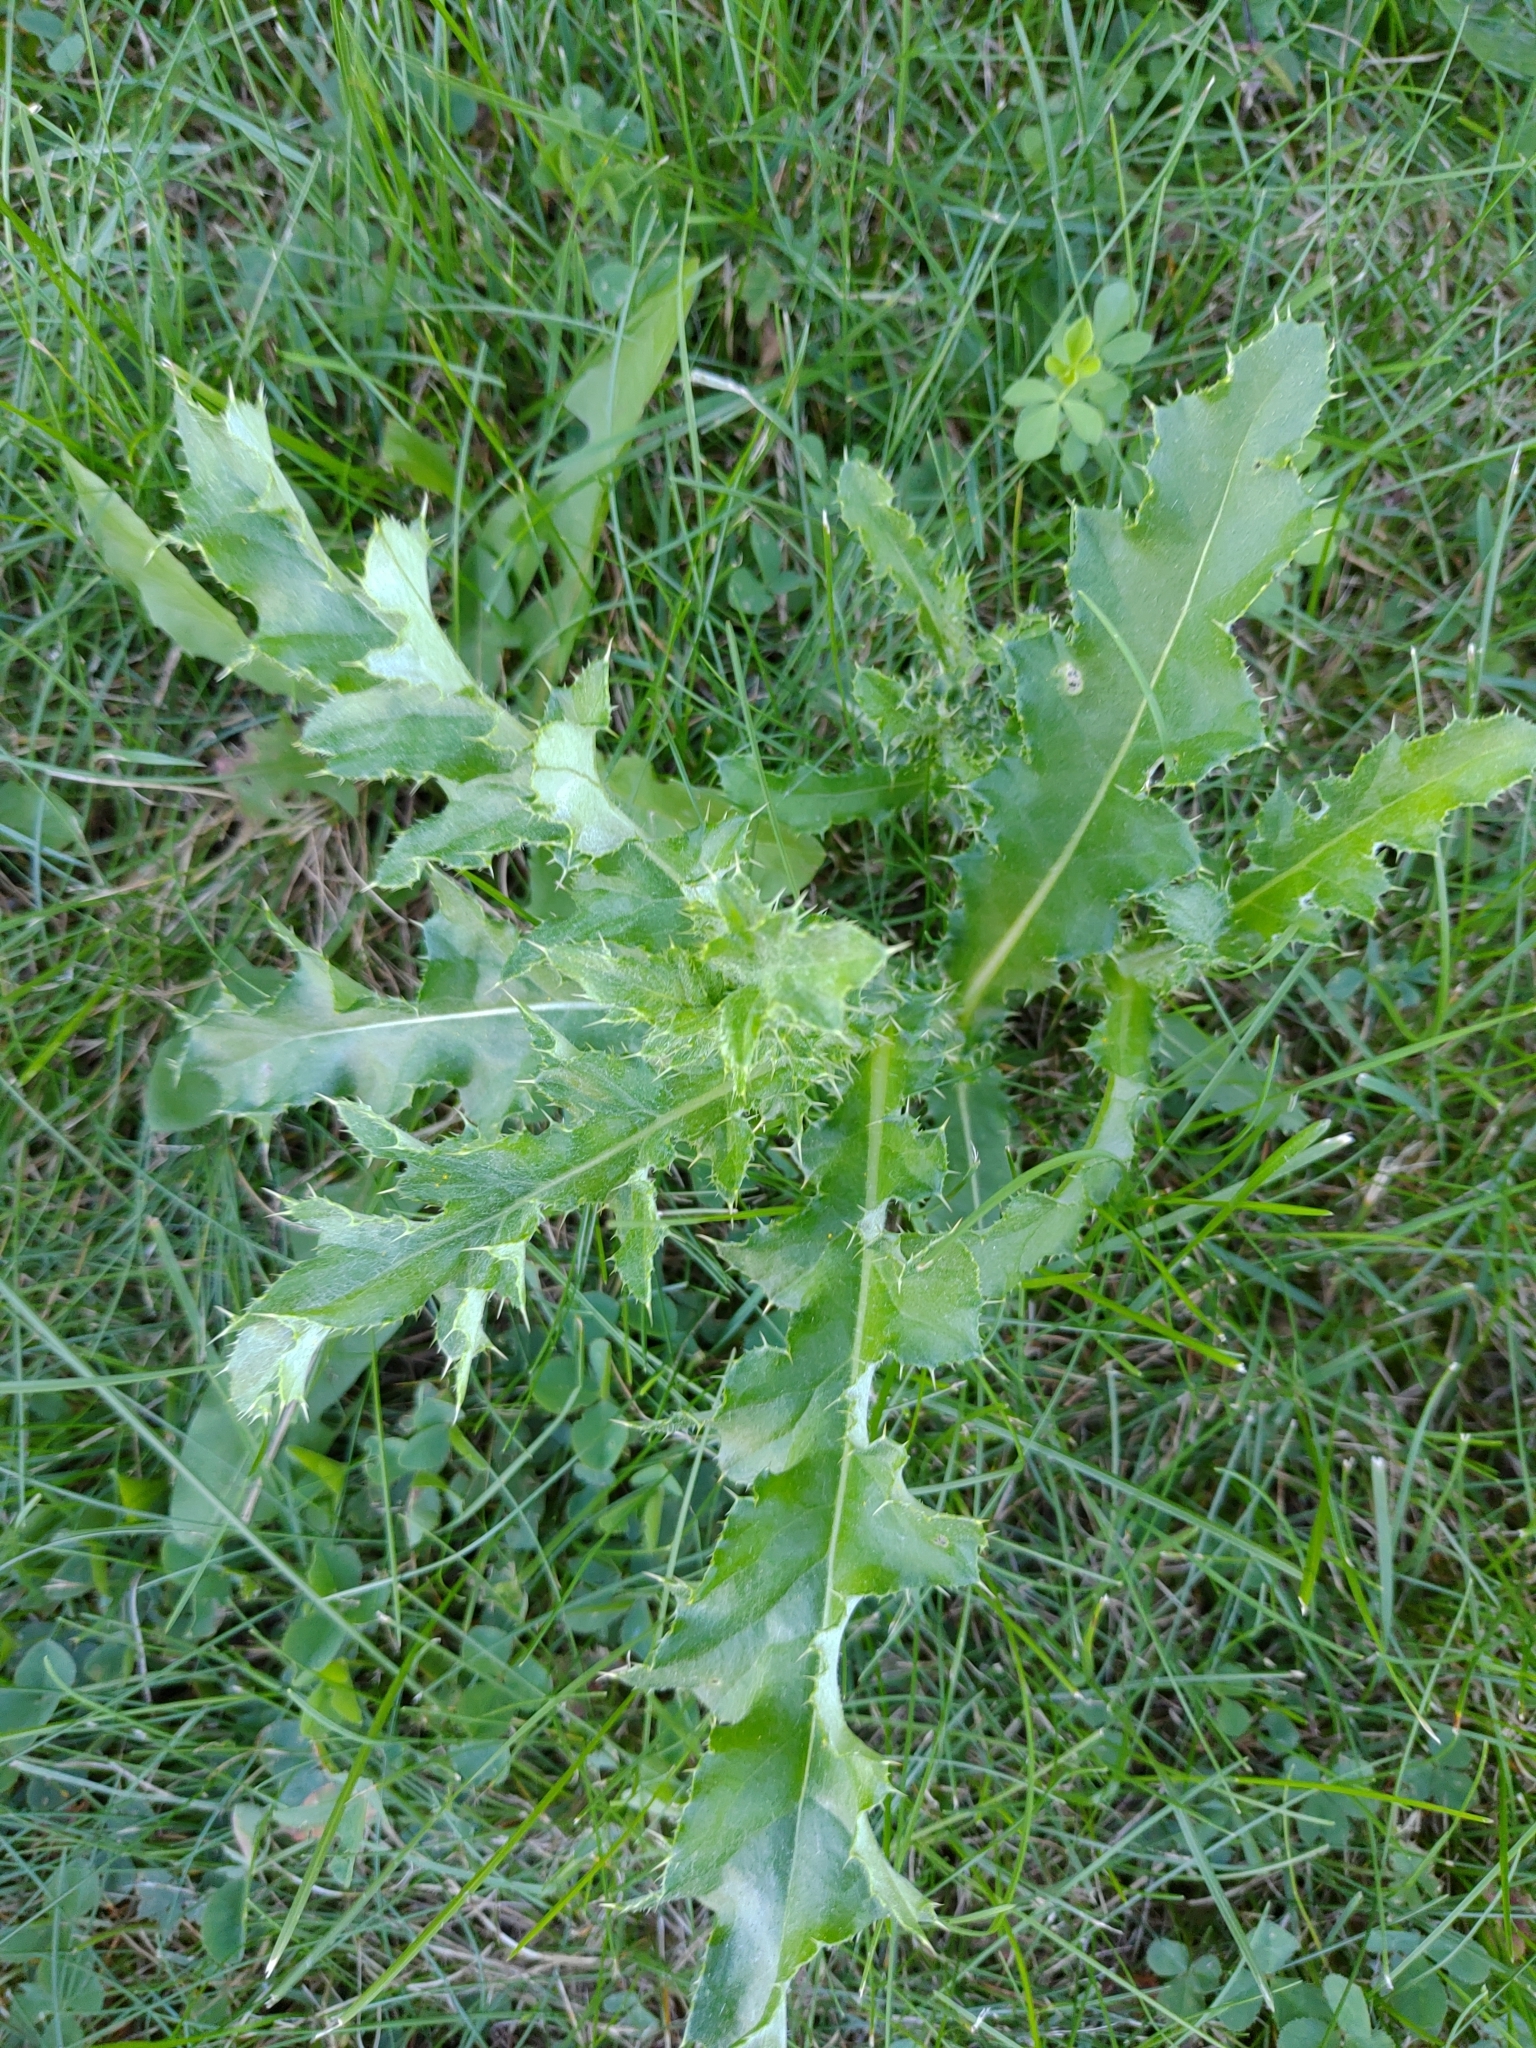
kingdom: Plantae
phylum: Tracheophyta
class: Magnoliopsida
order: Asterales
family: Asteraceae
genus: Cirsium
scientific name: Cirsium arvense
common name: Creeping thistle
